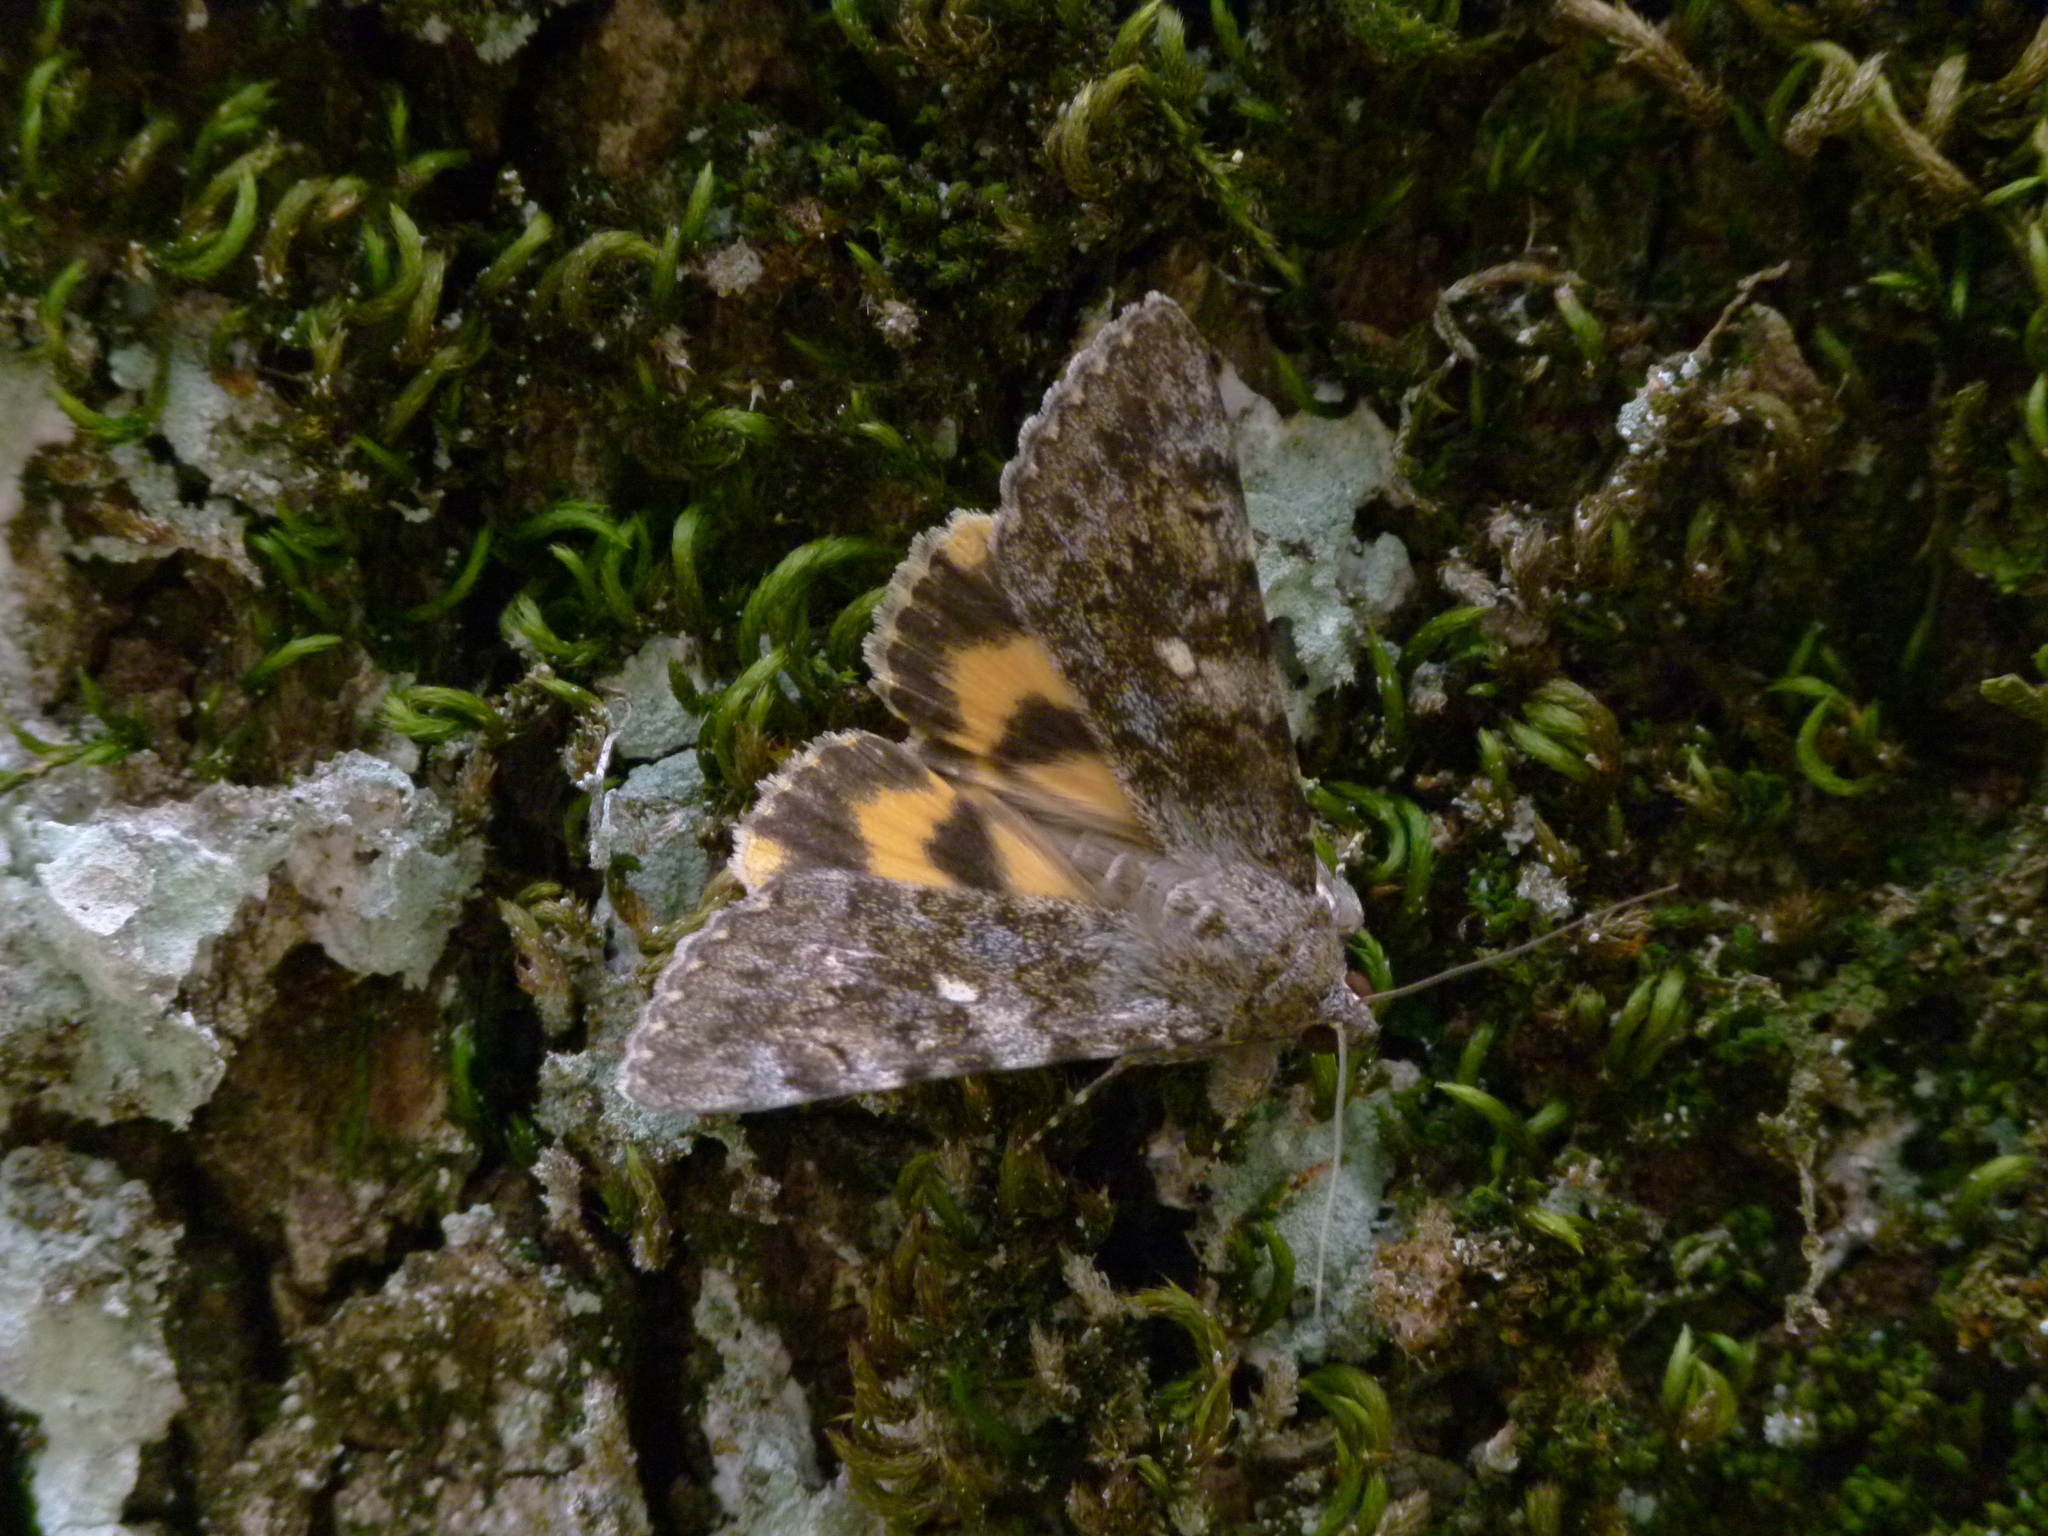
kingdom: Animalia
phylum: Arthropoda
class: Insecta
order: Lepidoptera
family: Erebidae
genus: Catocala
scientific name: Catocala nymphaea
